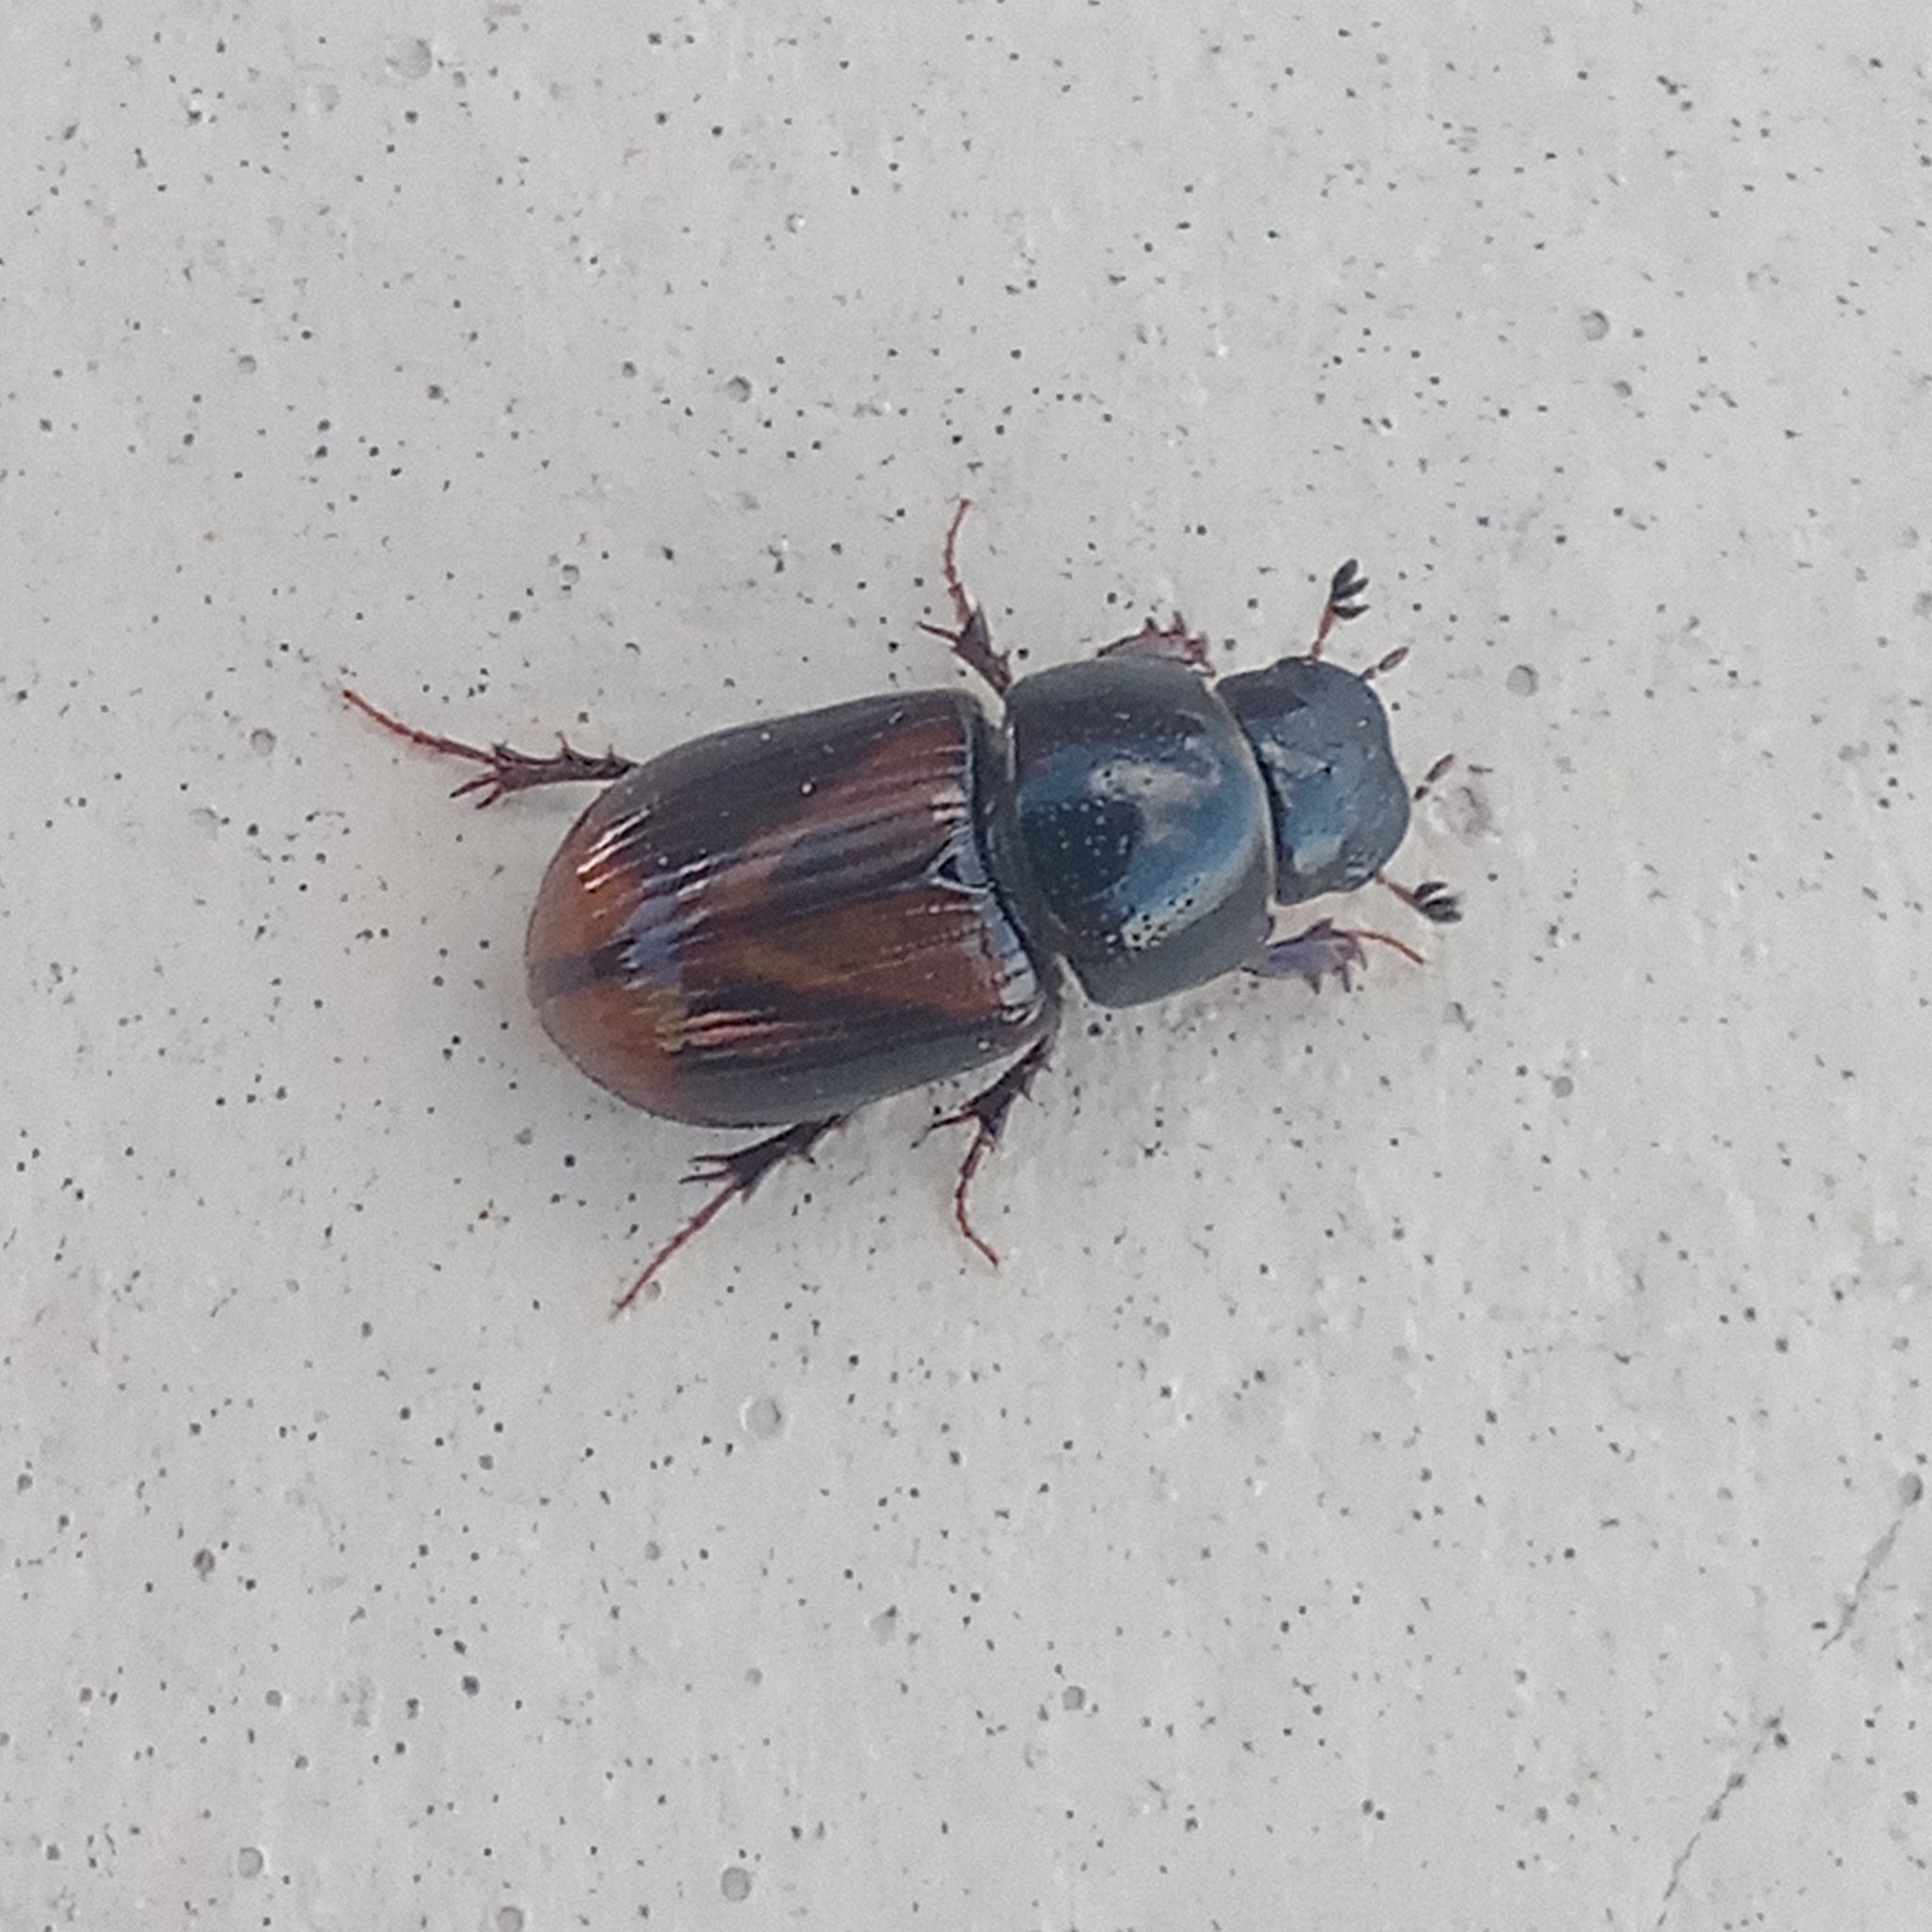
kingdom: Animalia
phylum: Arthropoda
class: Insecta
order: Coleoptera
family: Scarabaeidae
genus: Phaeaphodius
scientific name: Phaeaphodius rectus
